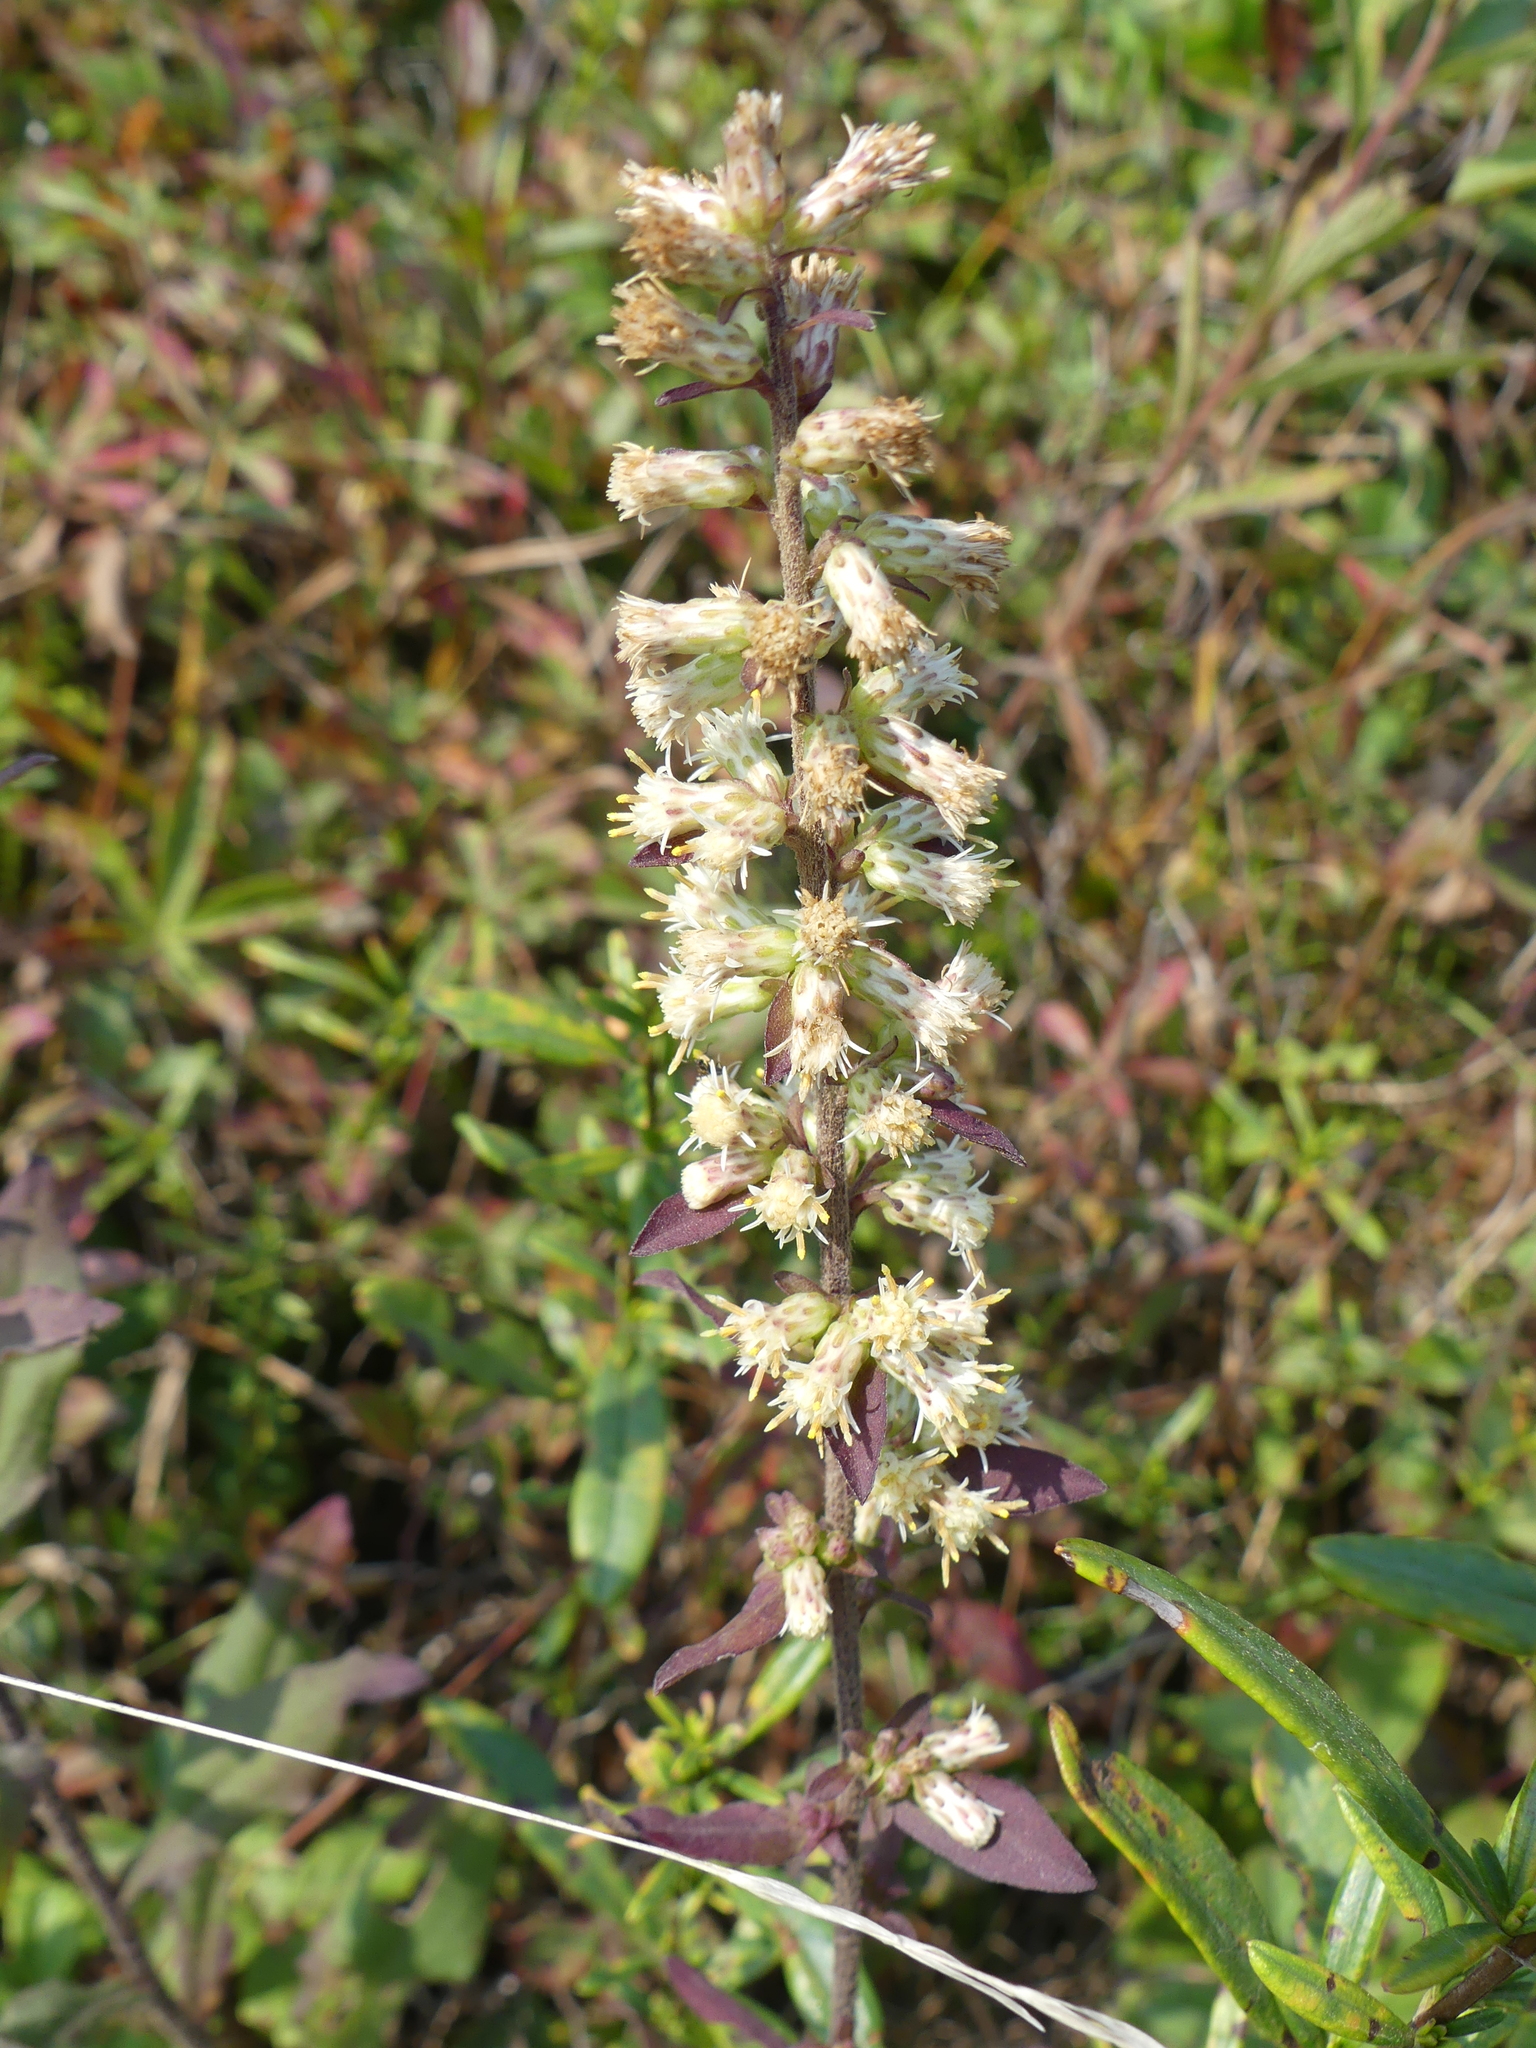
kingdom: Plantae
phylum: Tracheophyta
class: Magnoliopsida
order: Asterales
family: Asteraceae
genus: Solidago
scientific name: Solidago bicolor
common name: Silverrod
